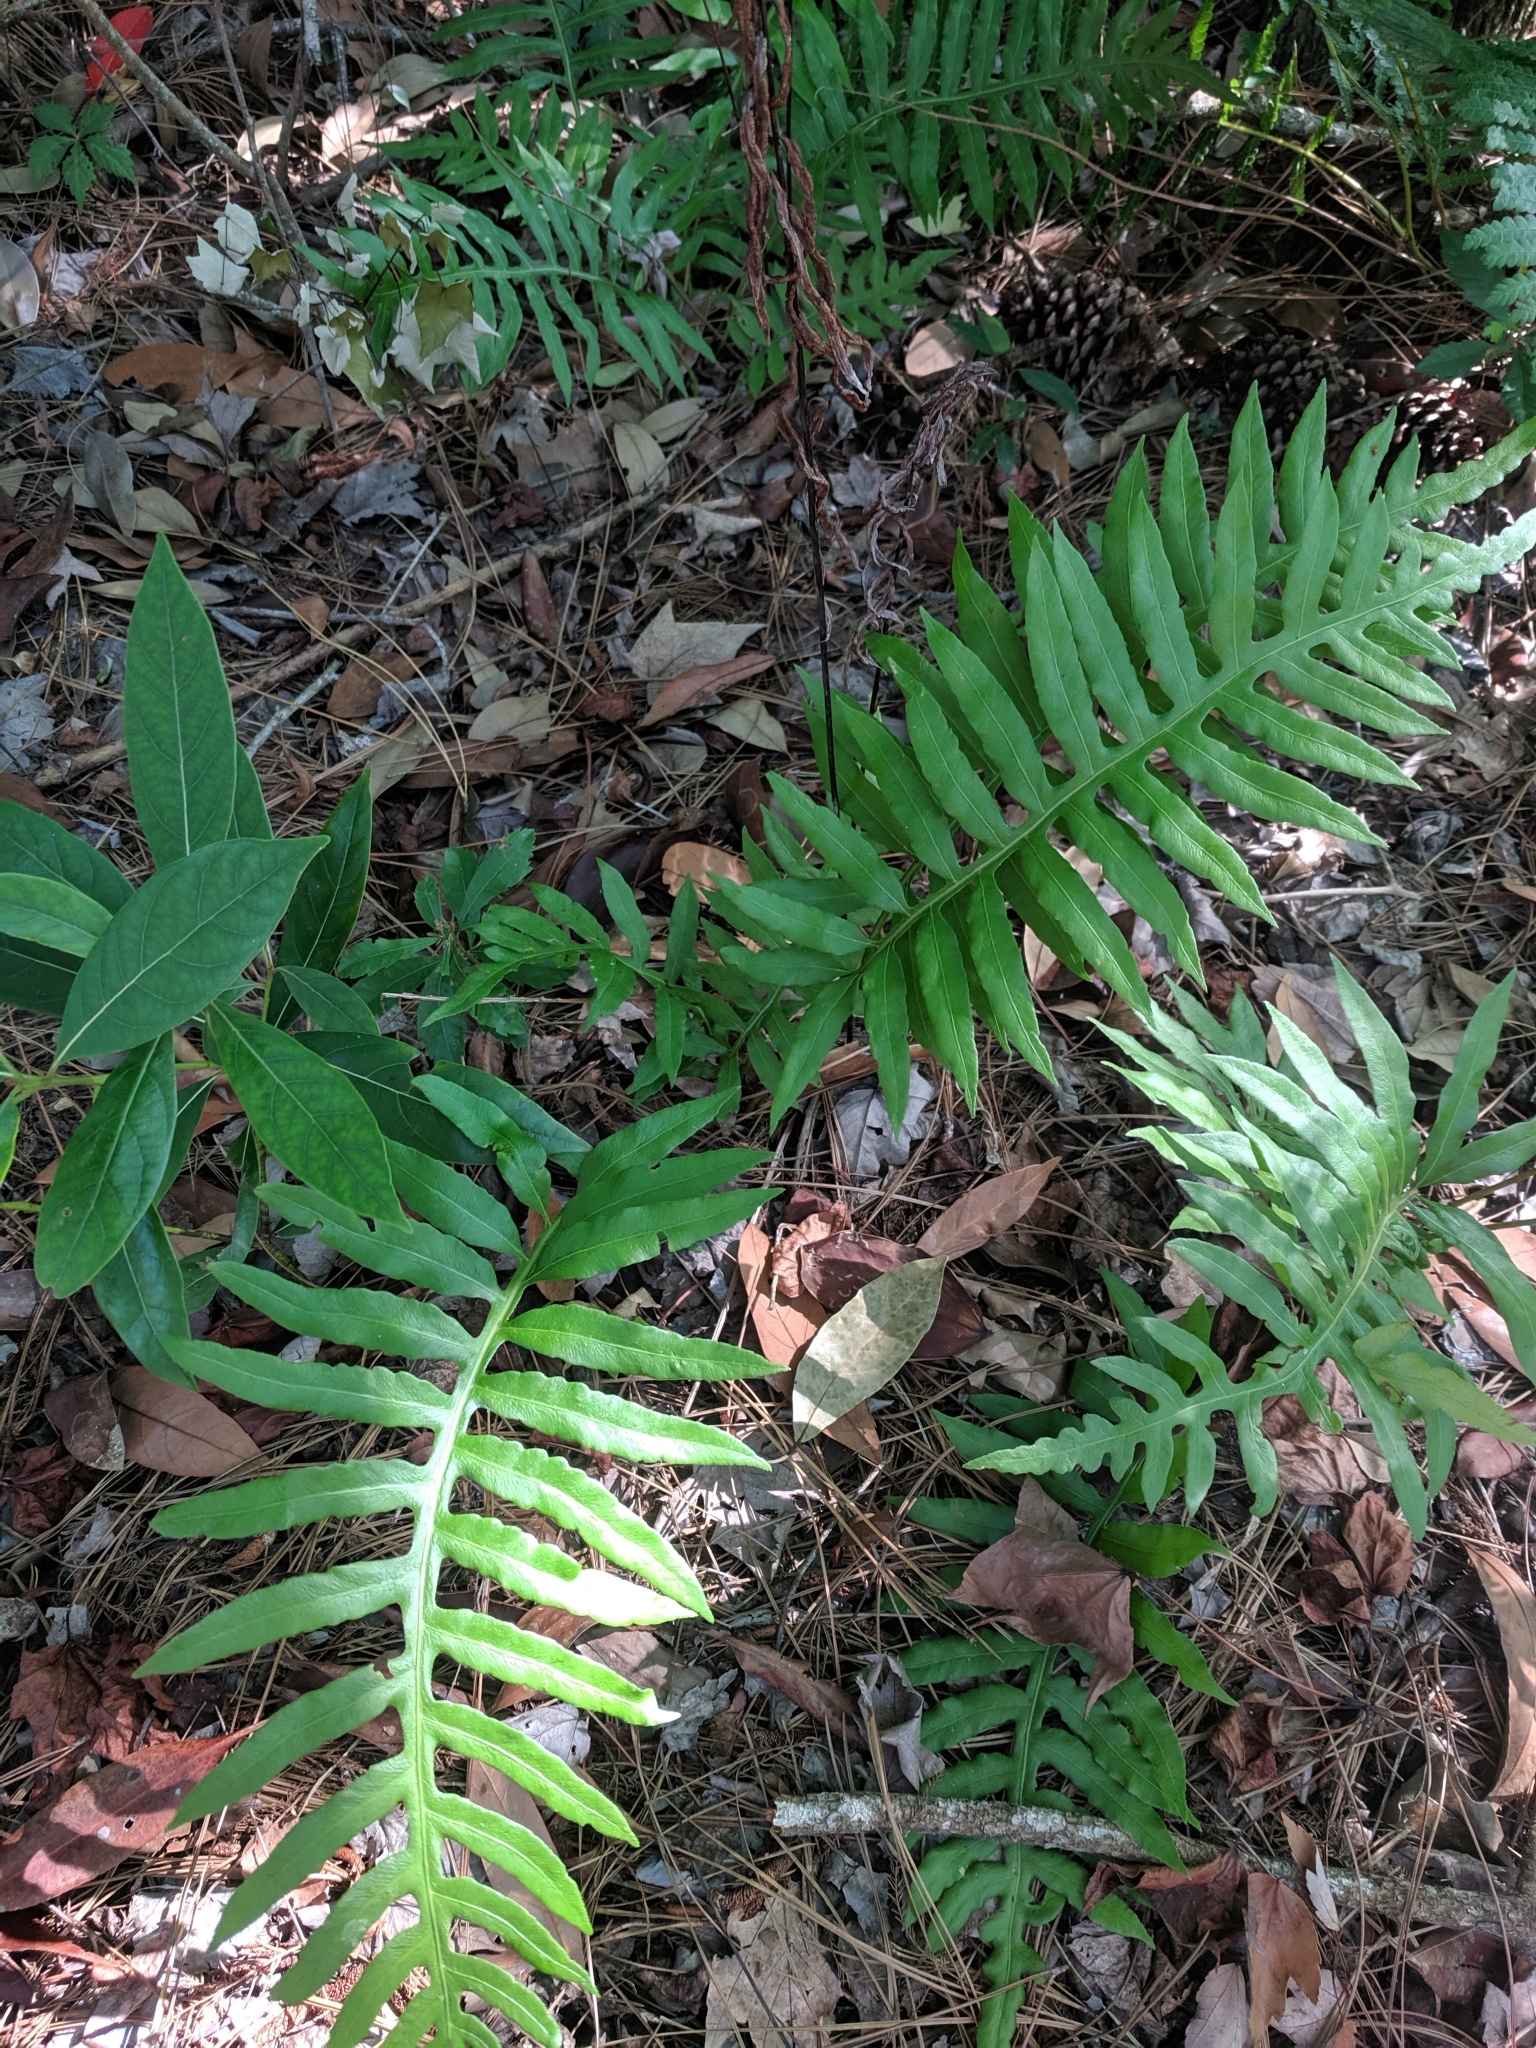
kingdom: Plantae
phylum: Tracheophyta
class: Polypodiopsida
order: Polypodiales
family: Blechnaceae
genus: Lorinseria
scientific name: Lorinseria areolata
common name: Dwarf chain fern
